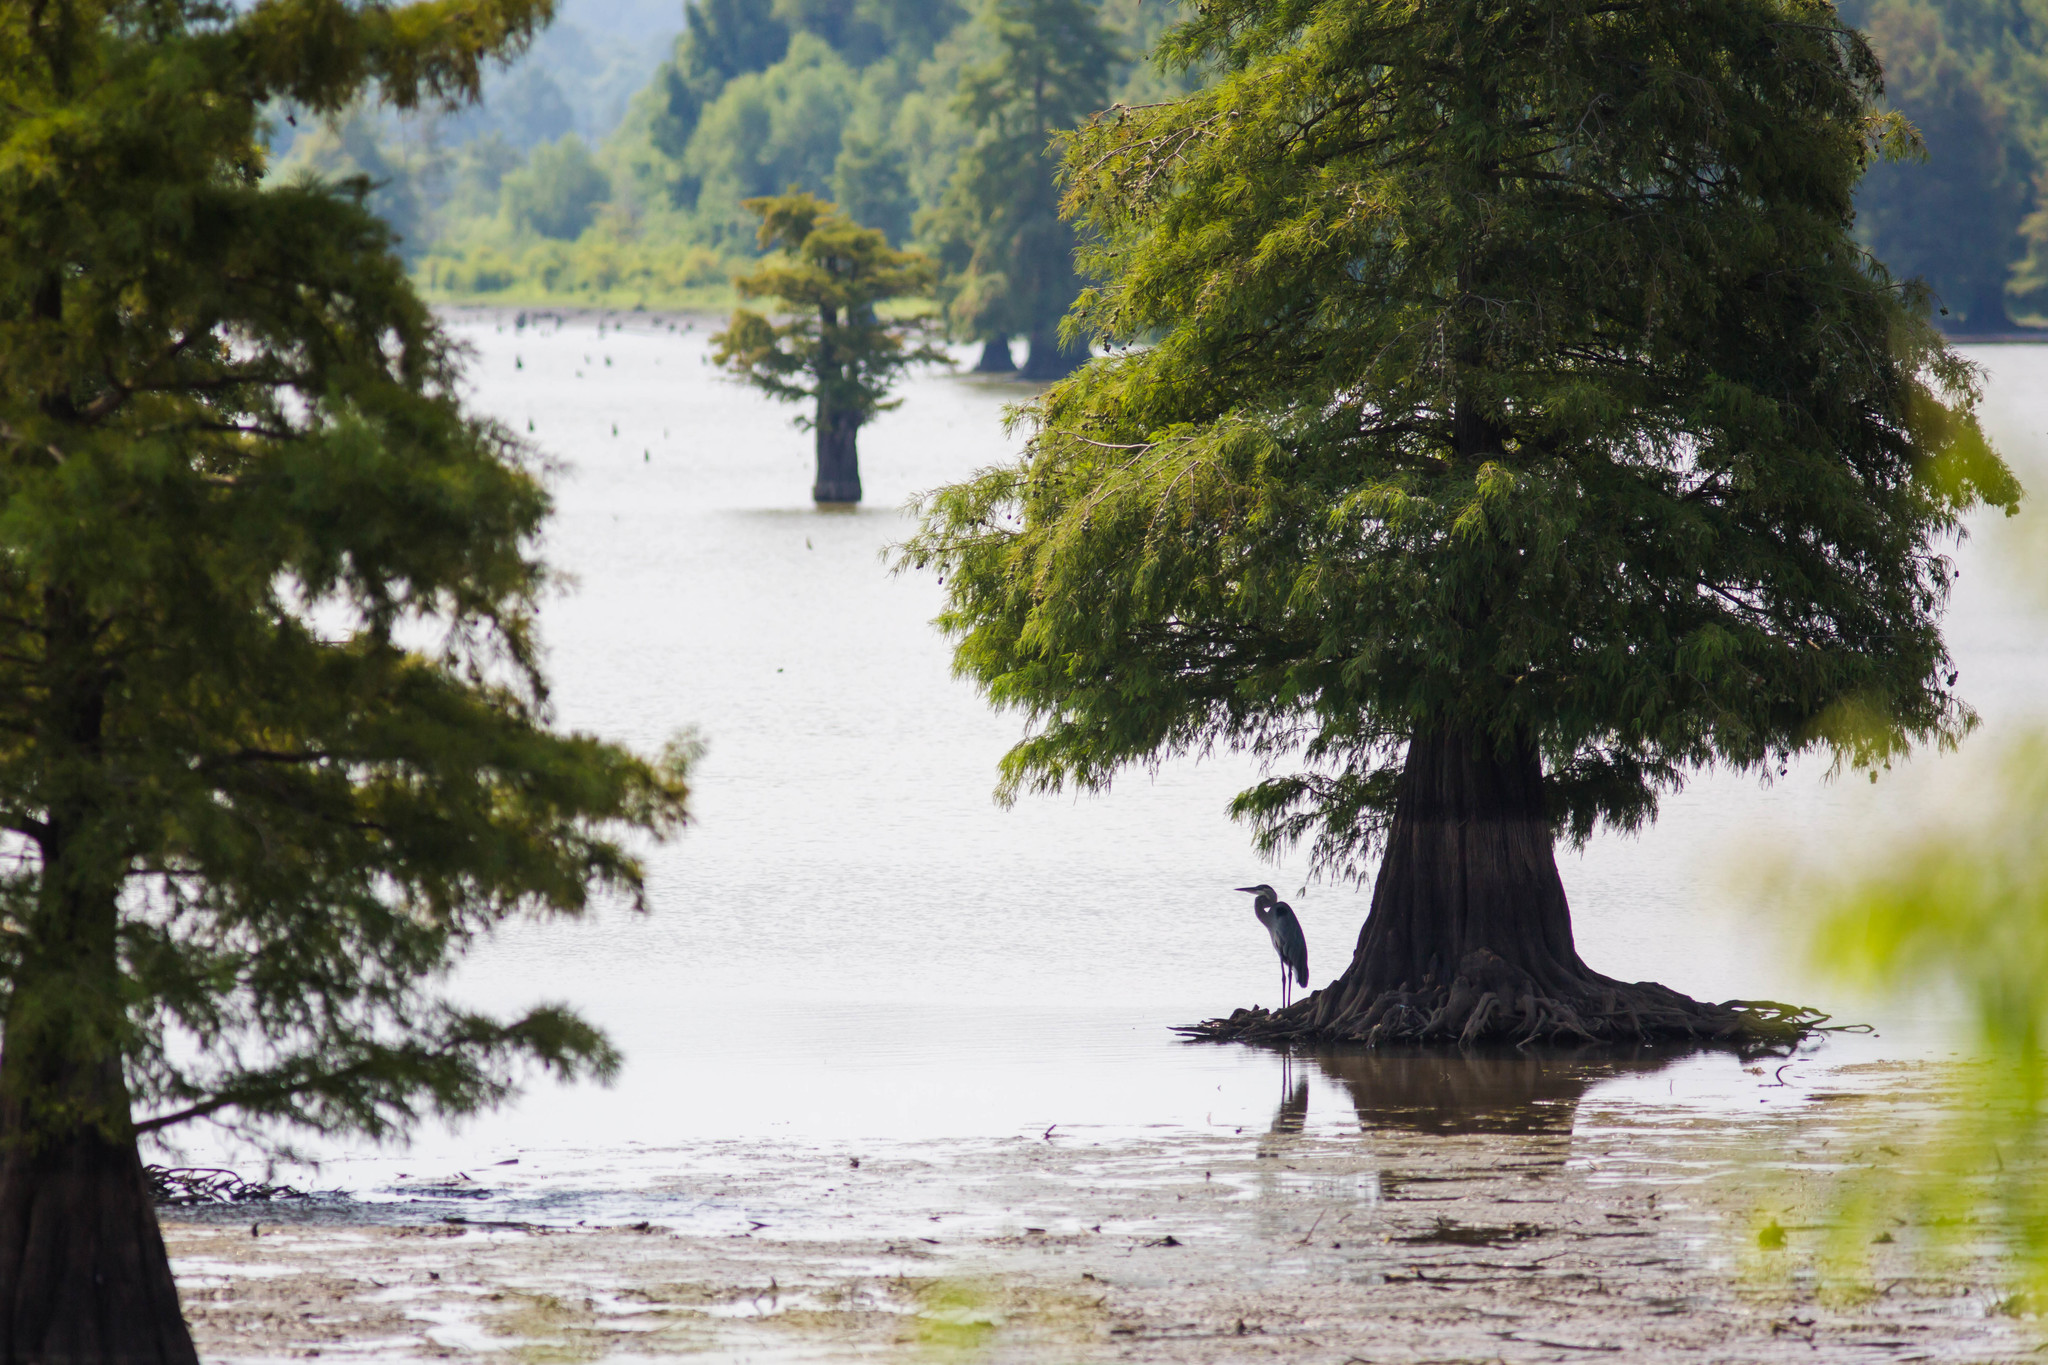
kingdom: Animalia
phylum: Chordata
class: Aves
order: Pelecaniformes
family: Ardeidae
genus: Ardea
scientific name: Ardea herodias
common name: Great blue heron
